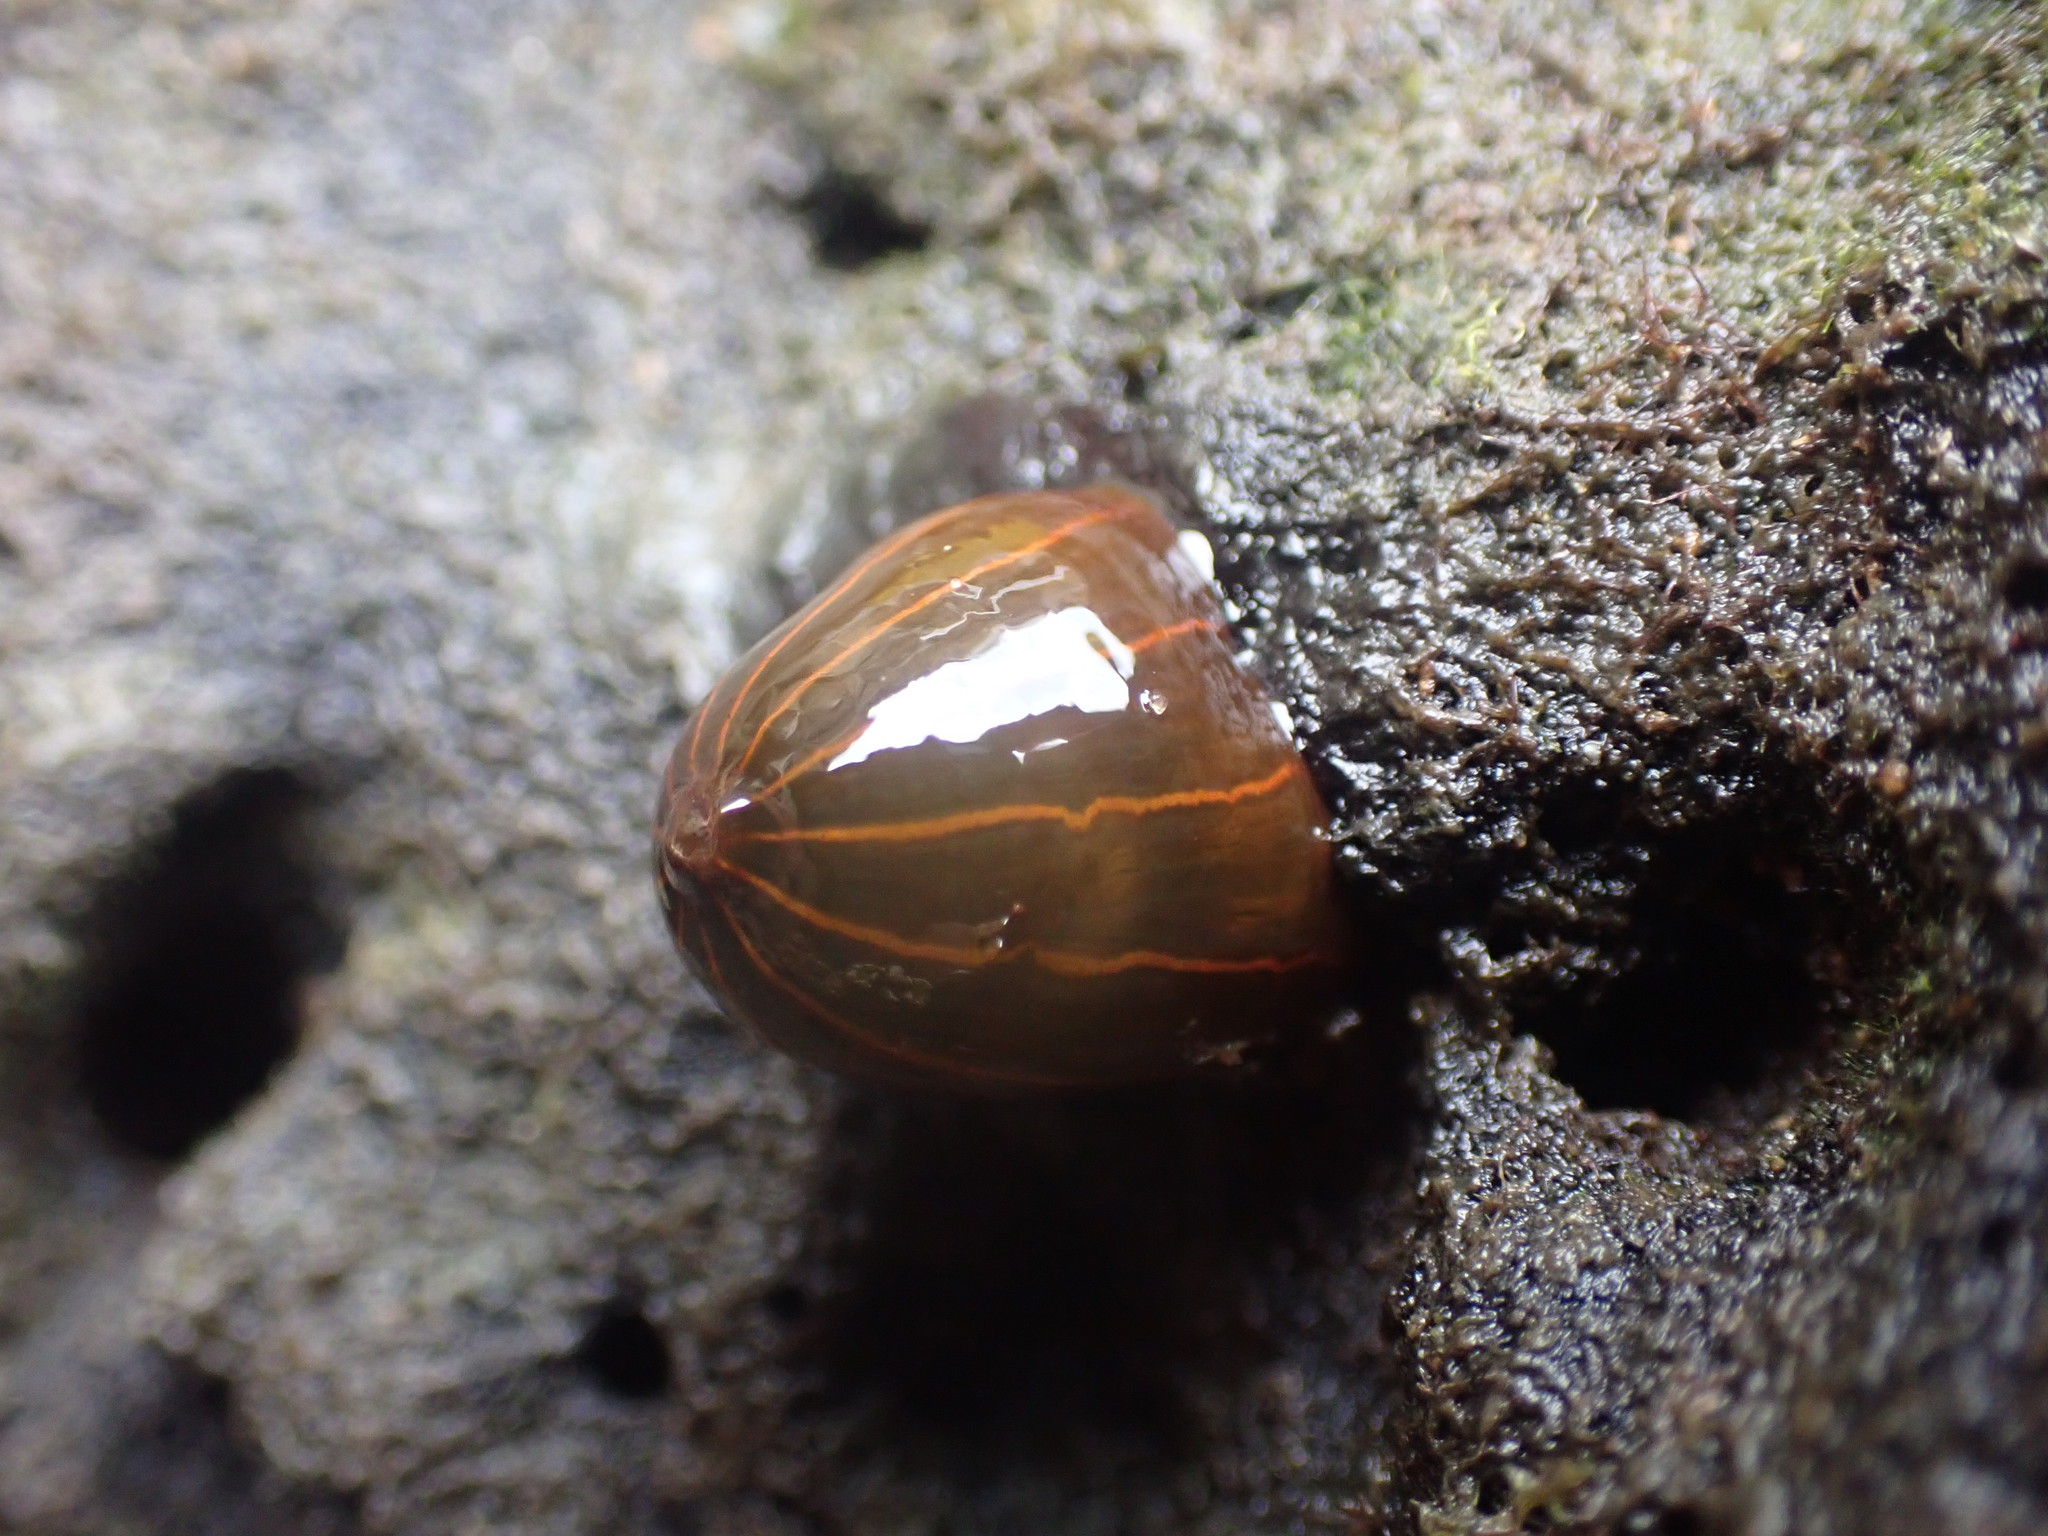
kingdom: Animalia
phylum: Cnidaria
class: Anthozoa
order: Actiniaria
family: Diadumenidae
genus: Diadumene
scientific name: Diadumene lineata
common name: Orange-striped anemone
